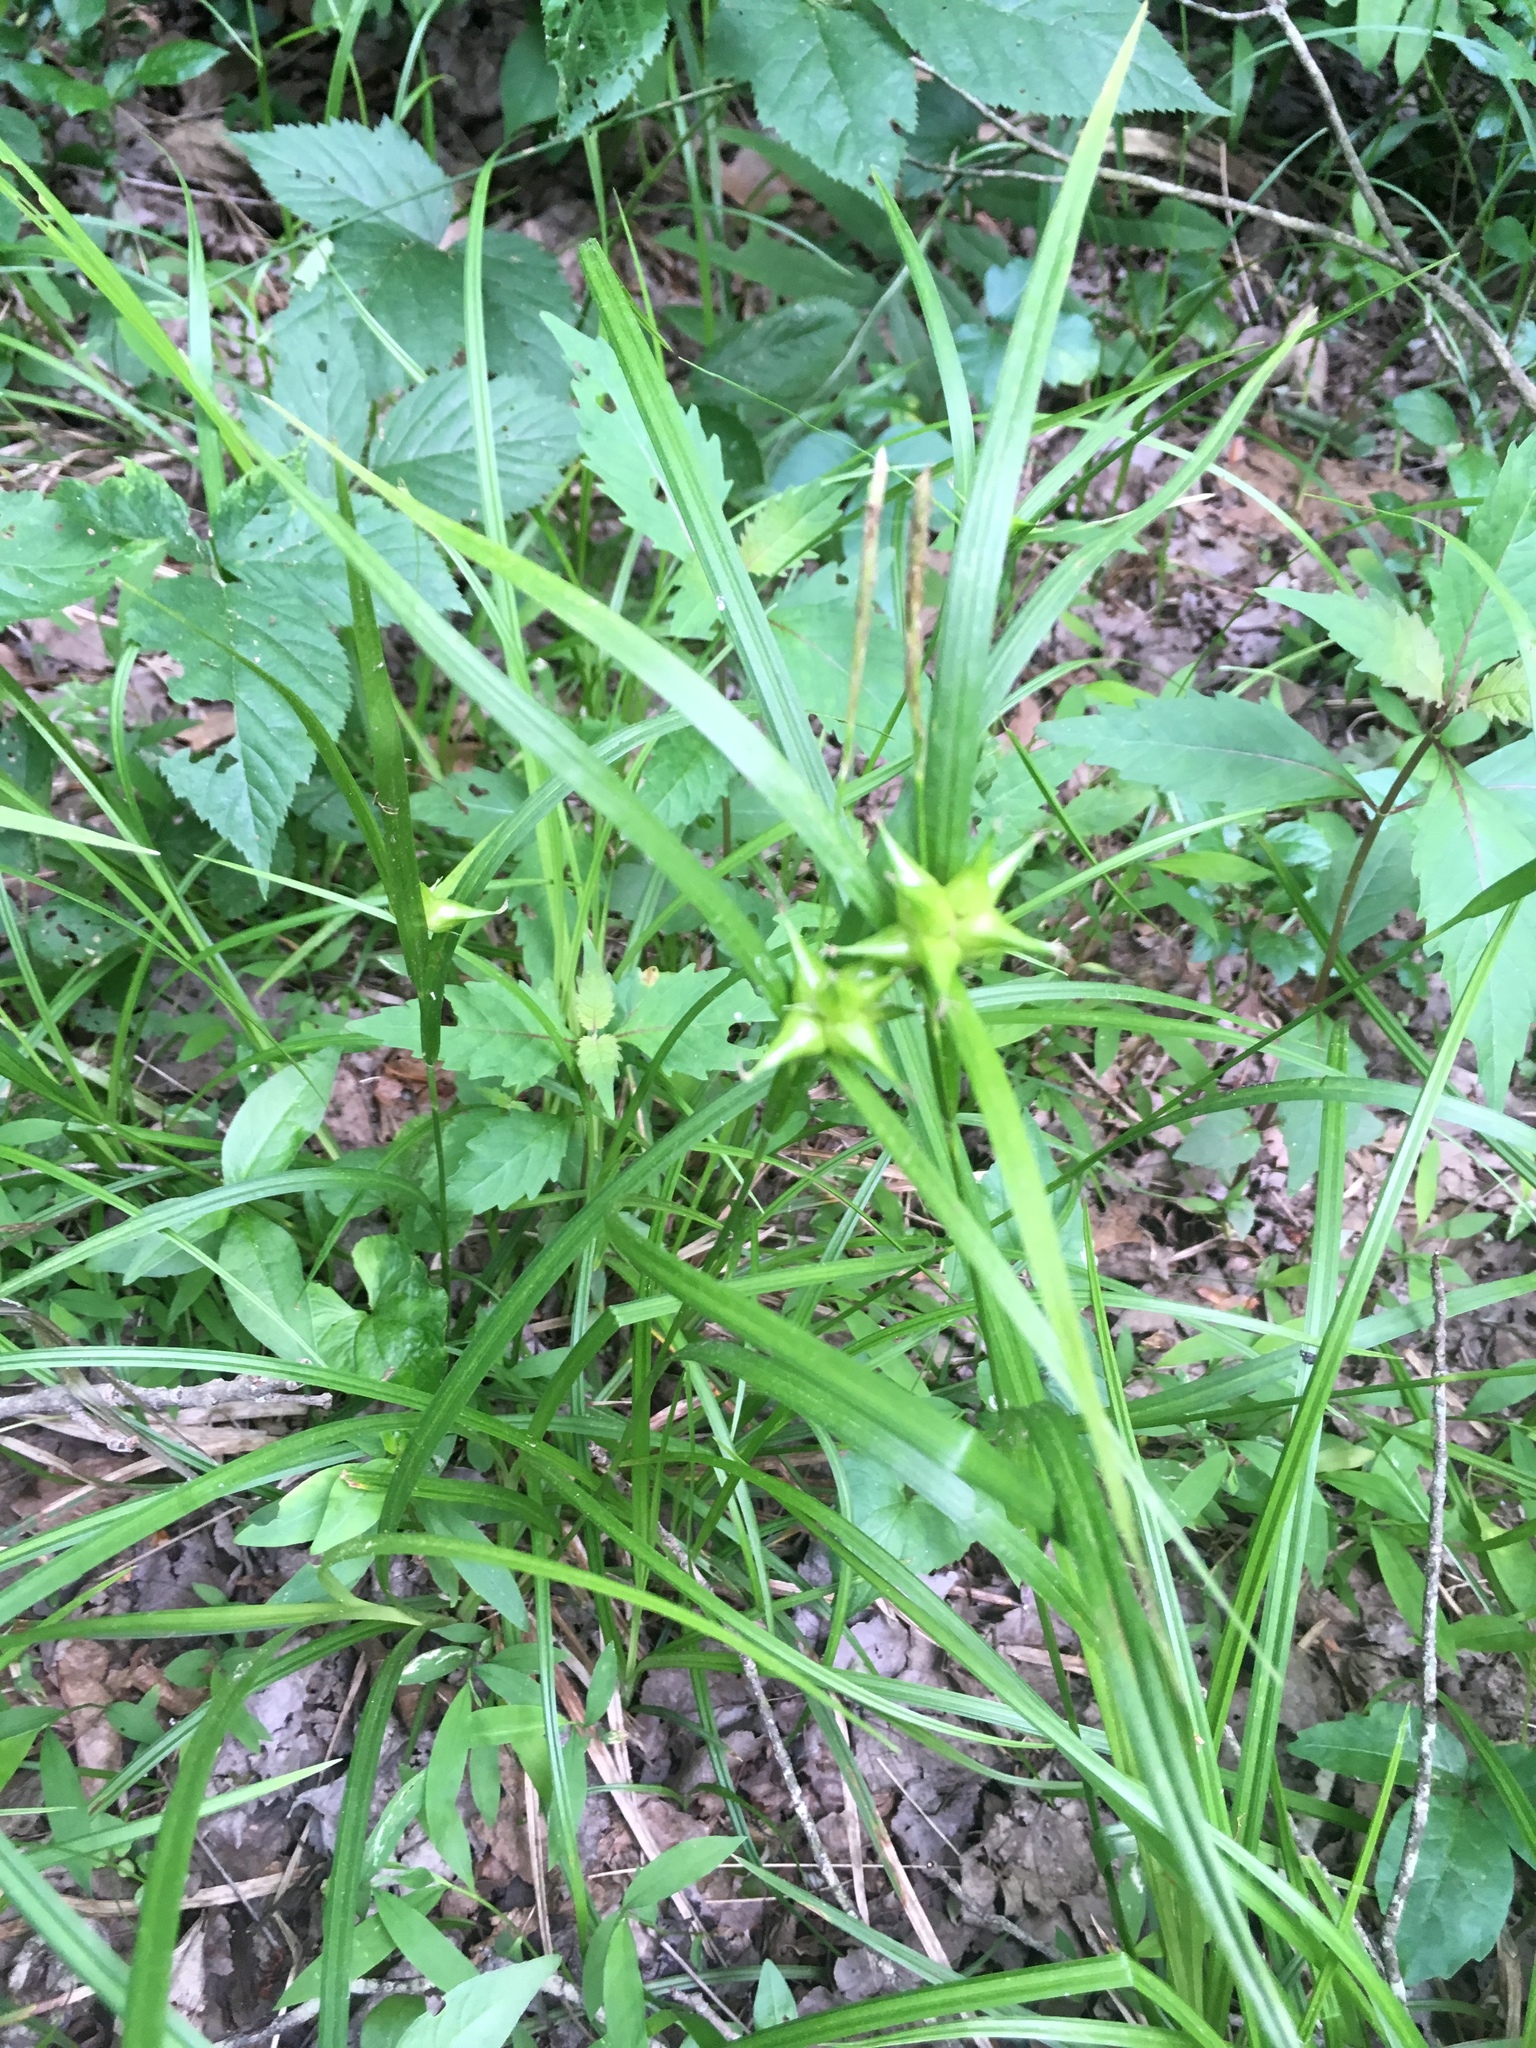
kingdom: Plantae
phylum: Tracheophyta
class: Liliopsida
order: Poales
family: Cyperaceae
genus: Carex
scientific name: Carex intumescens
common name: Greater bladder sedge
